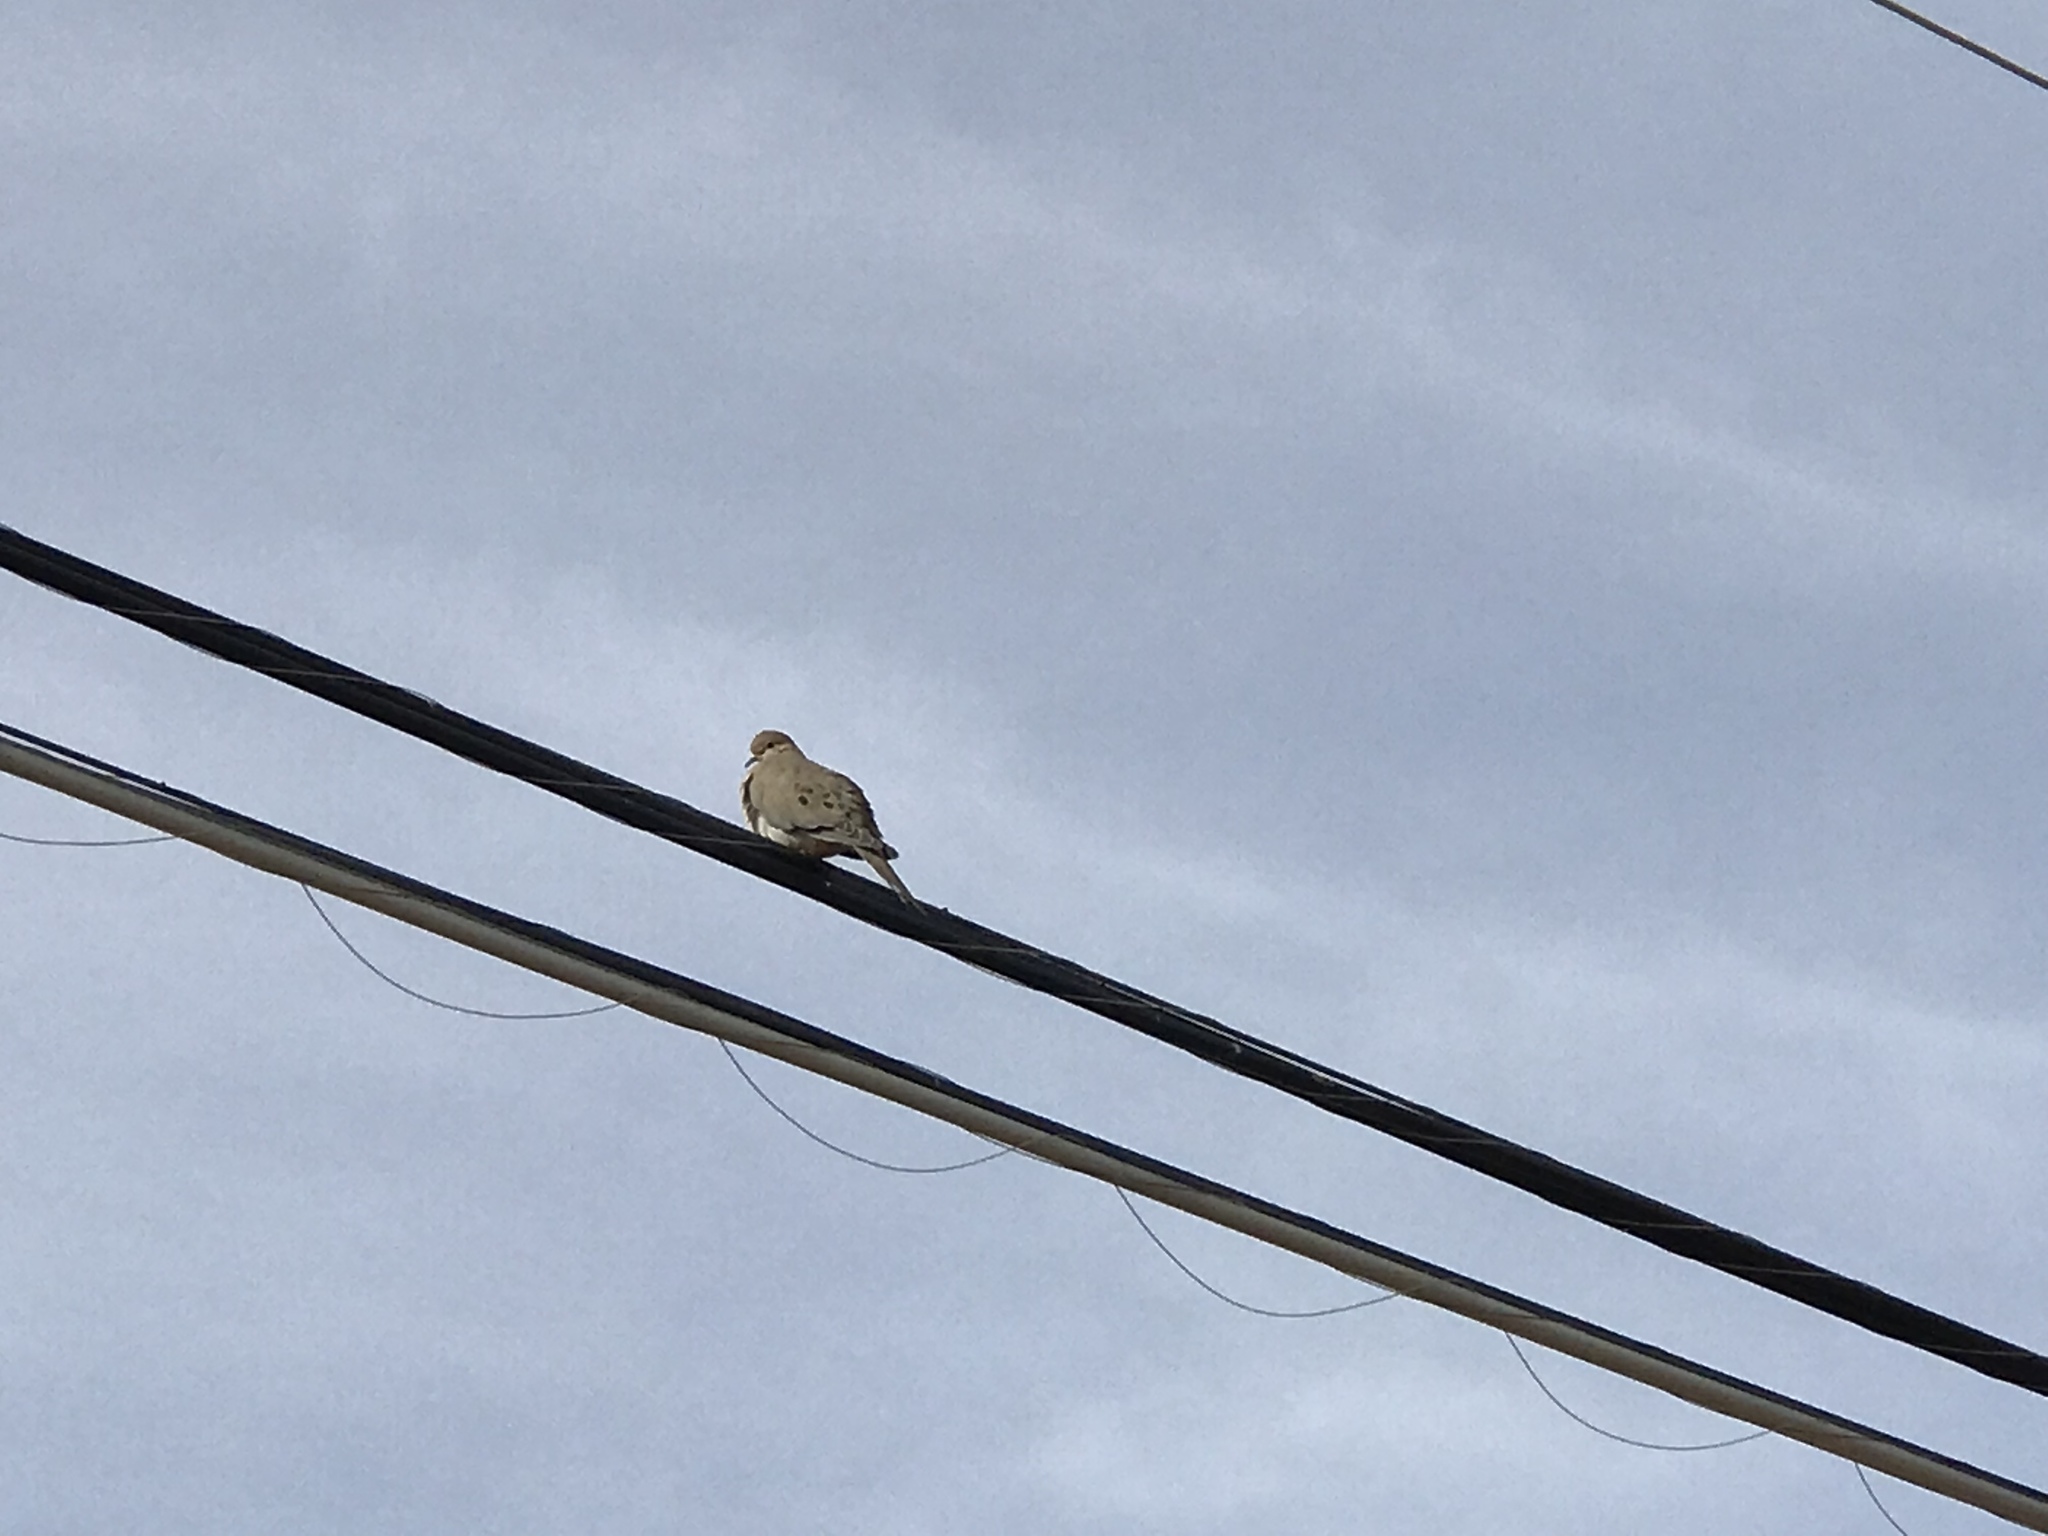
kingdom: Animalia
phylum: Chordata
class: Aves
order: Columbiformes
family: Columbidae
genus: Zenaida
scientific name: Zenaida macroura
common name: Mourning dove
